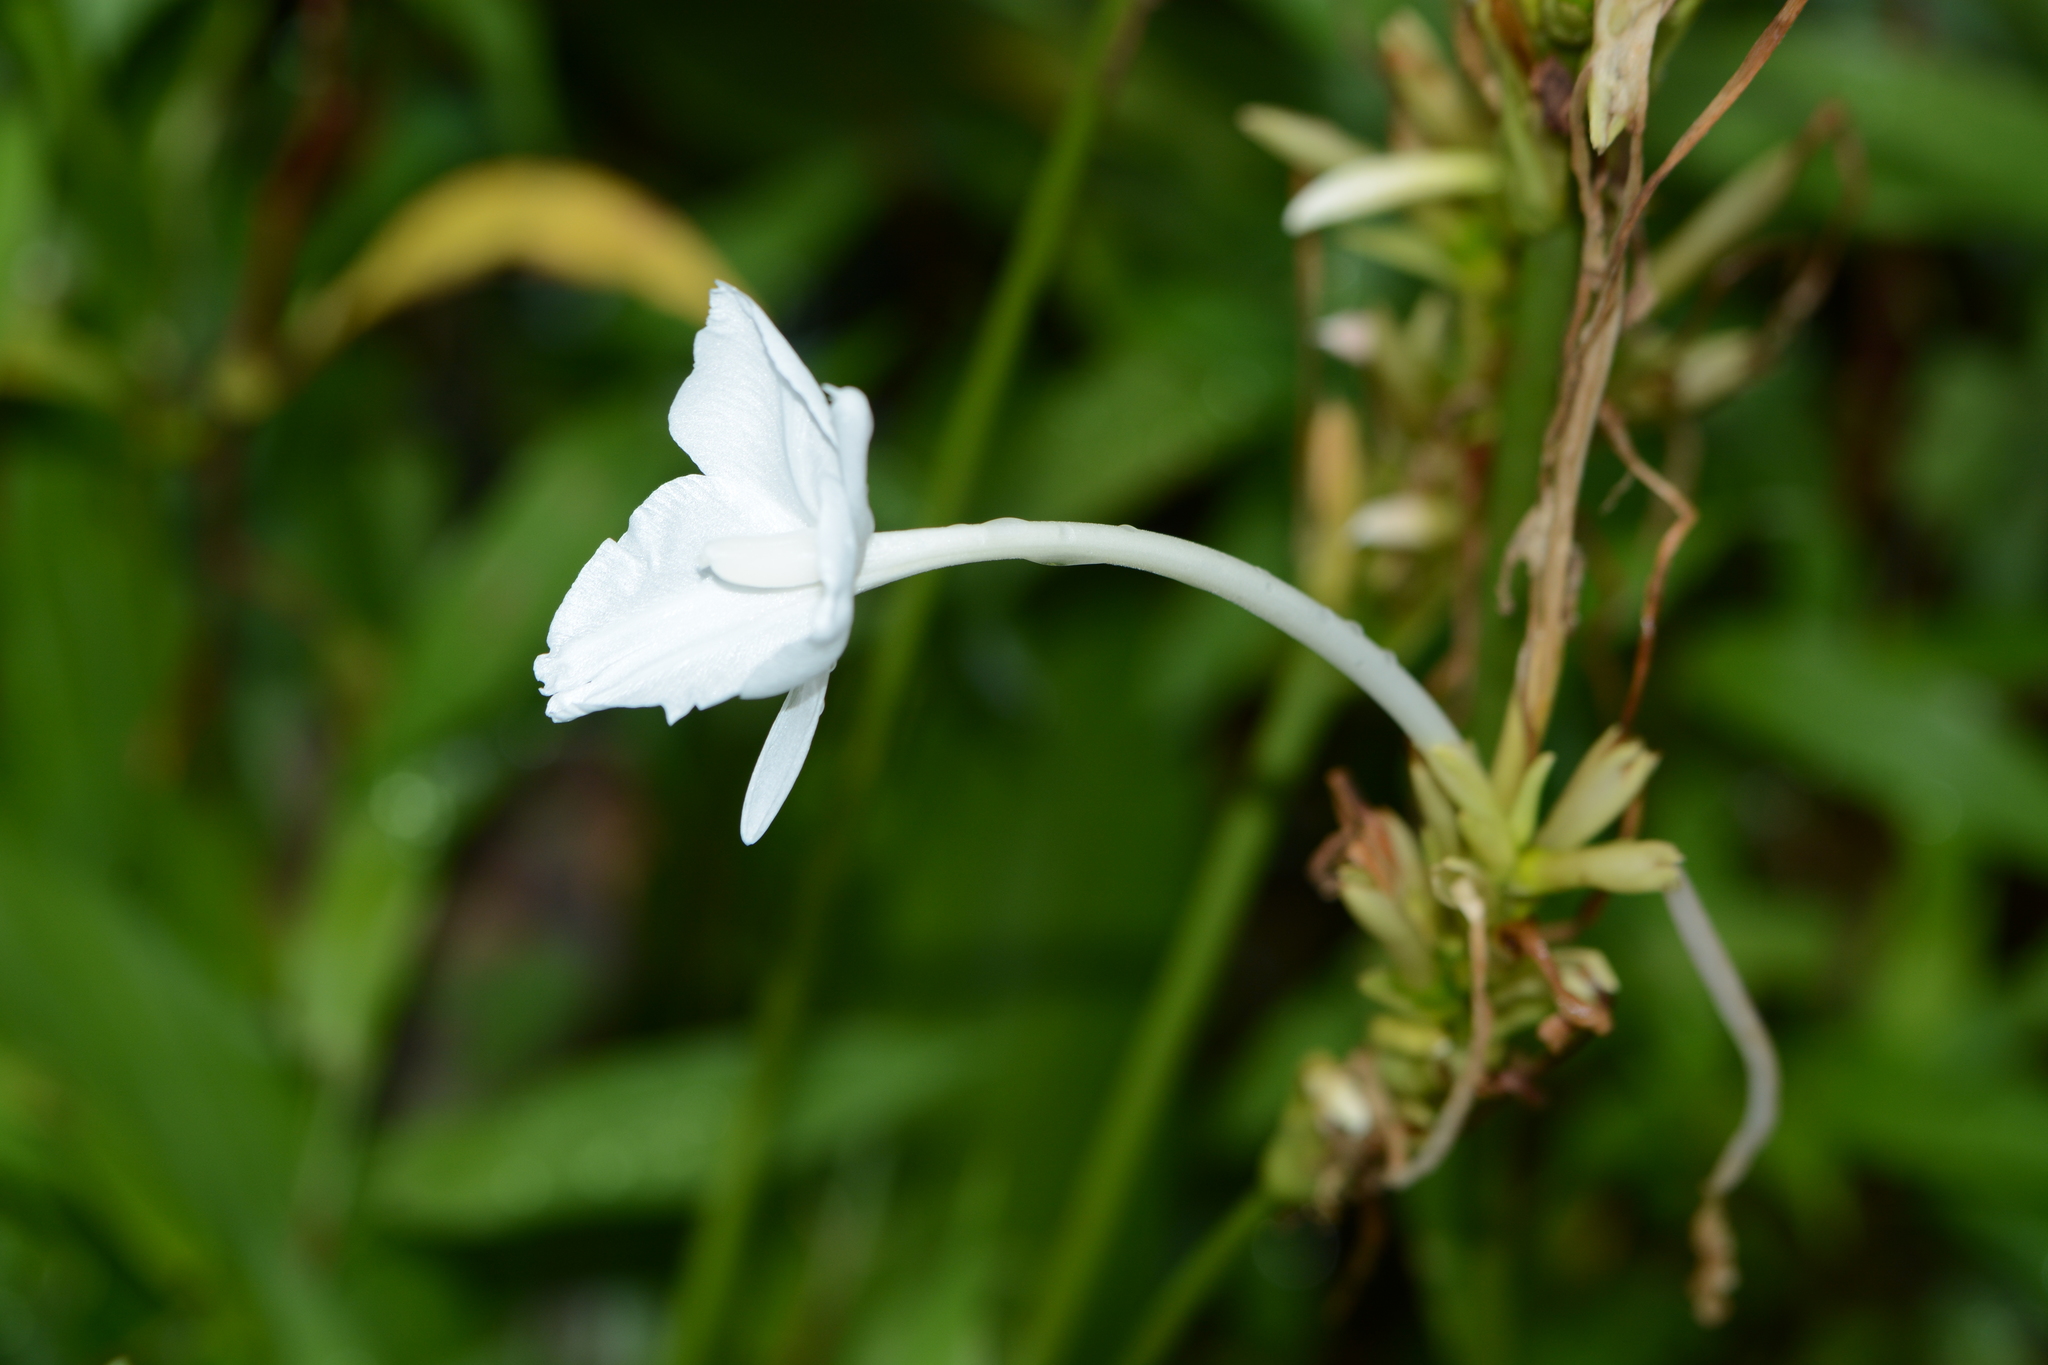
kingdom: Plantae
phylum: Tracheophyta
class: Liliopsida
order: Zingiberales
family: Zingiberaceae
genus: Curcuma
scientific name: Curcuma scaposa
